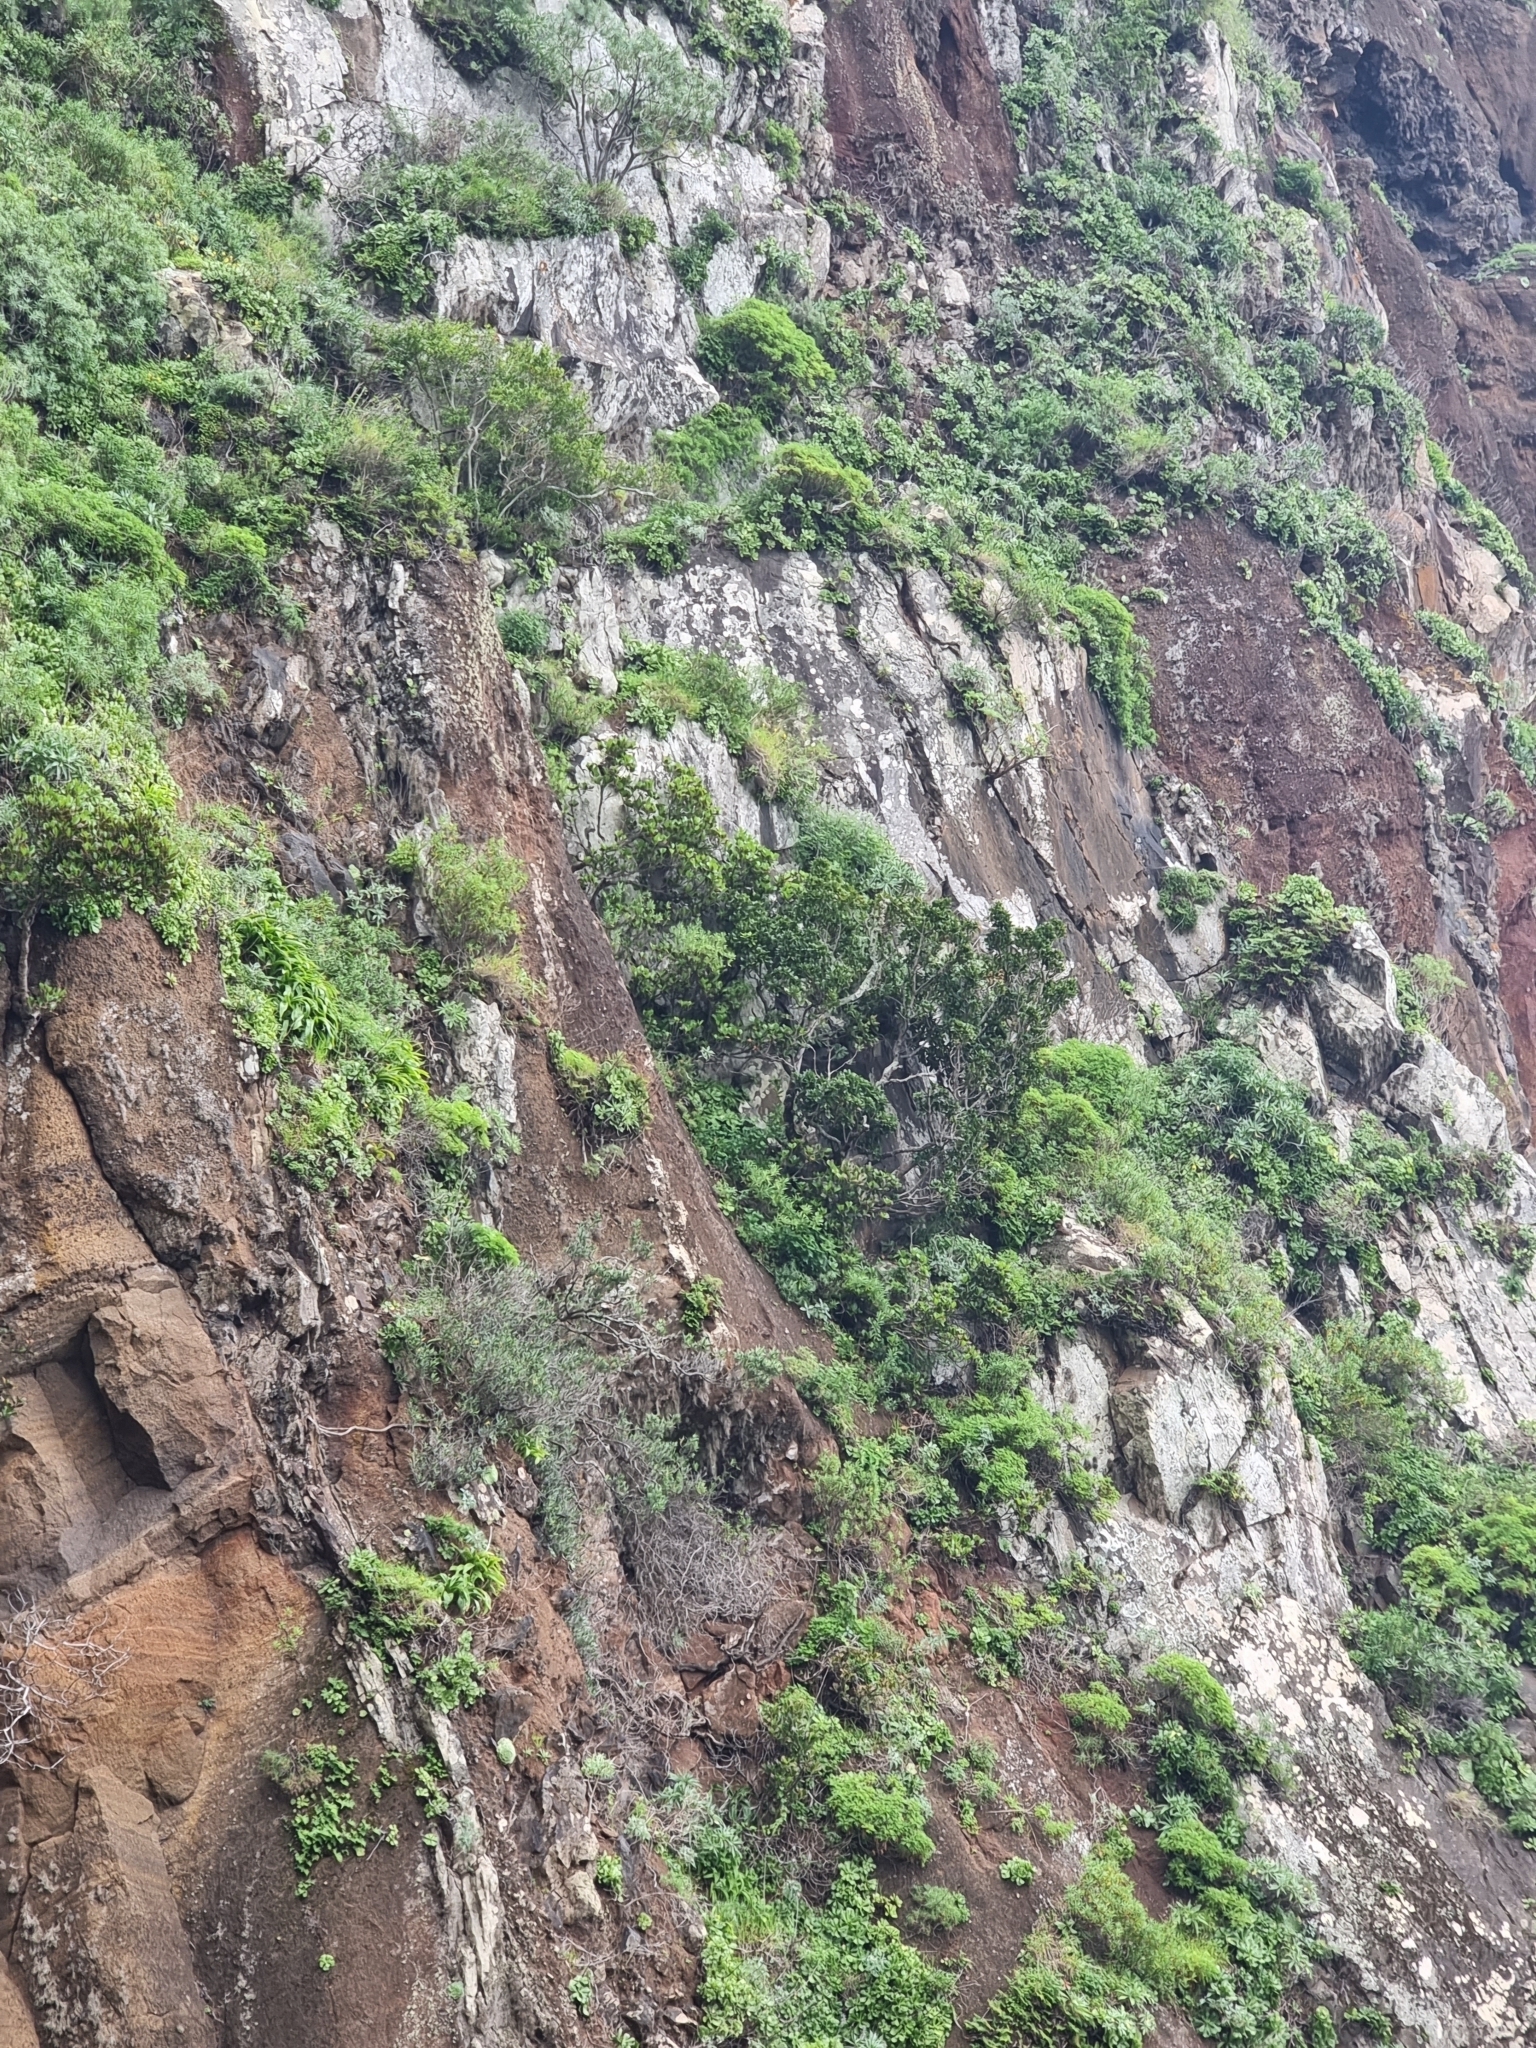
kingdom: Plantae
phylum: Tracheophyta
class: Liliopsida
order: Asparagales
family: Asparagaceae
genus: Scilla
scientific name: Scilla madeirensis
